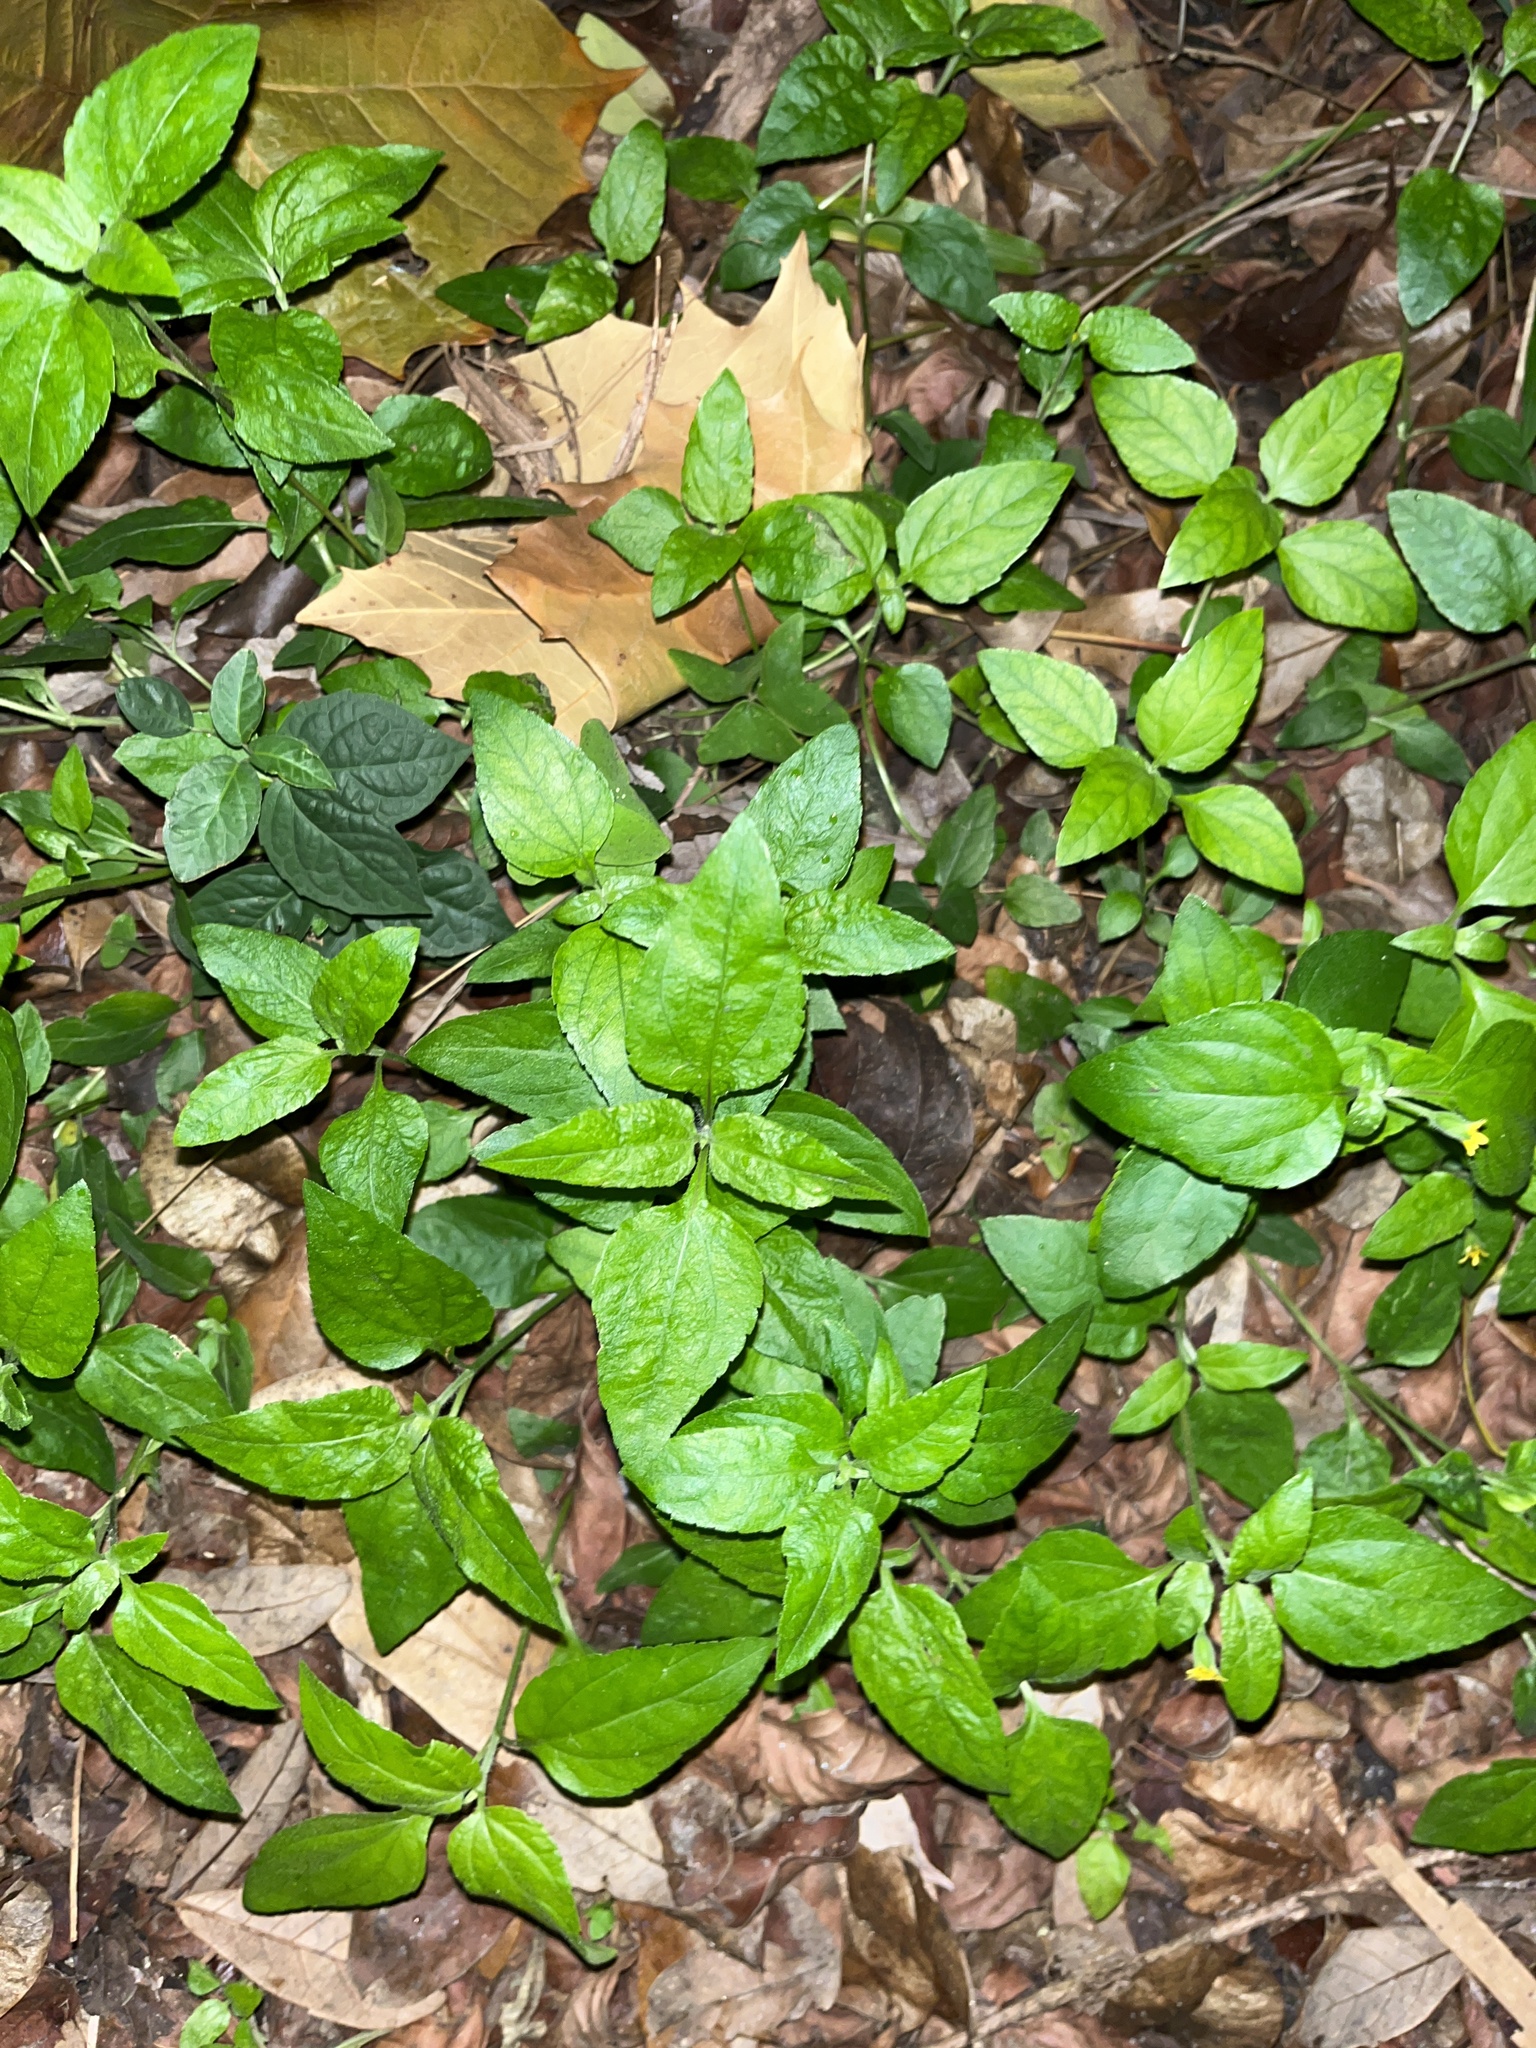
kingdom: Plantae
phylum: Tracheophyta
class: Magnoliopsida
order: Asterales
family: Asteraceae
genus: Calyptocarpus
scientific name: Calyptocarpus vialis
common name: Straggler daisy
